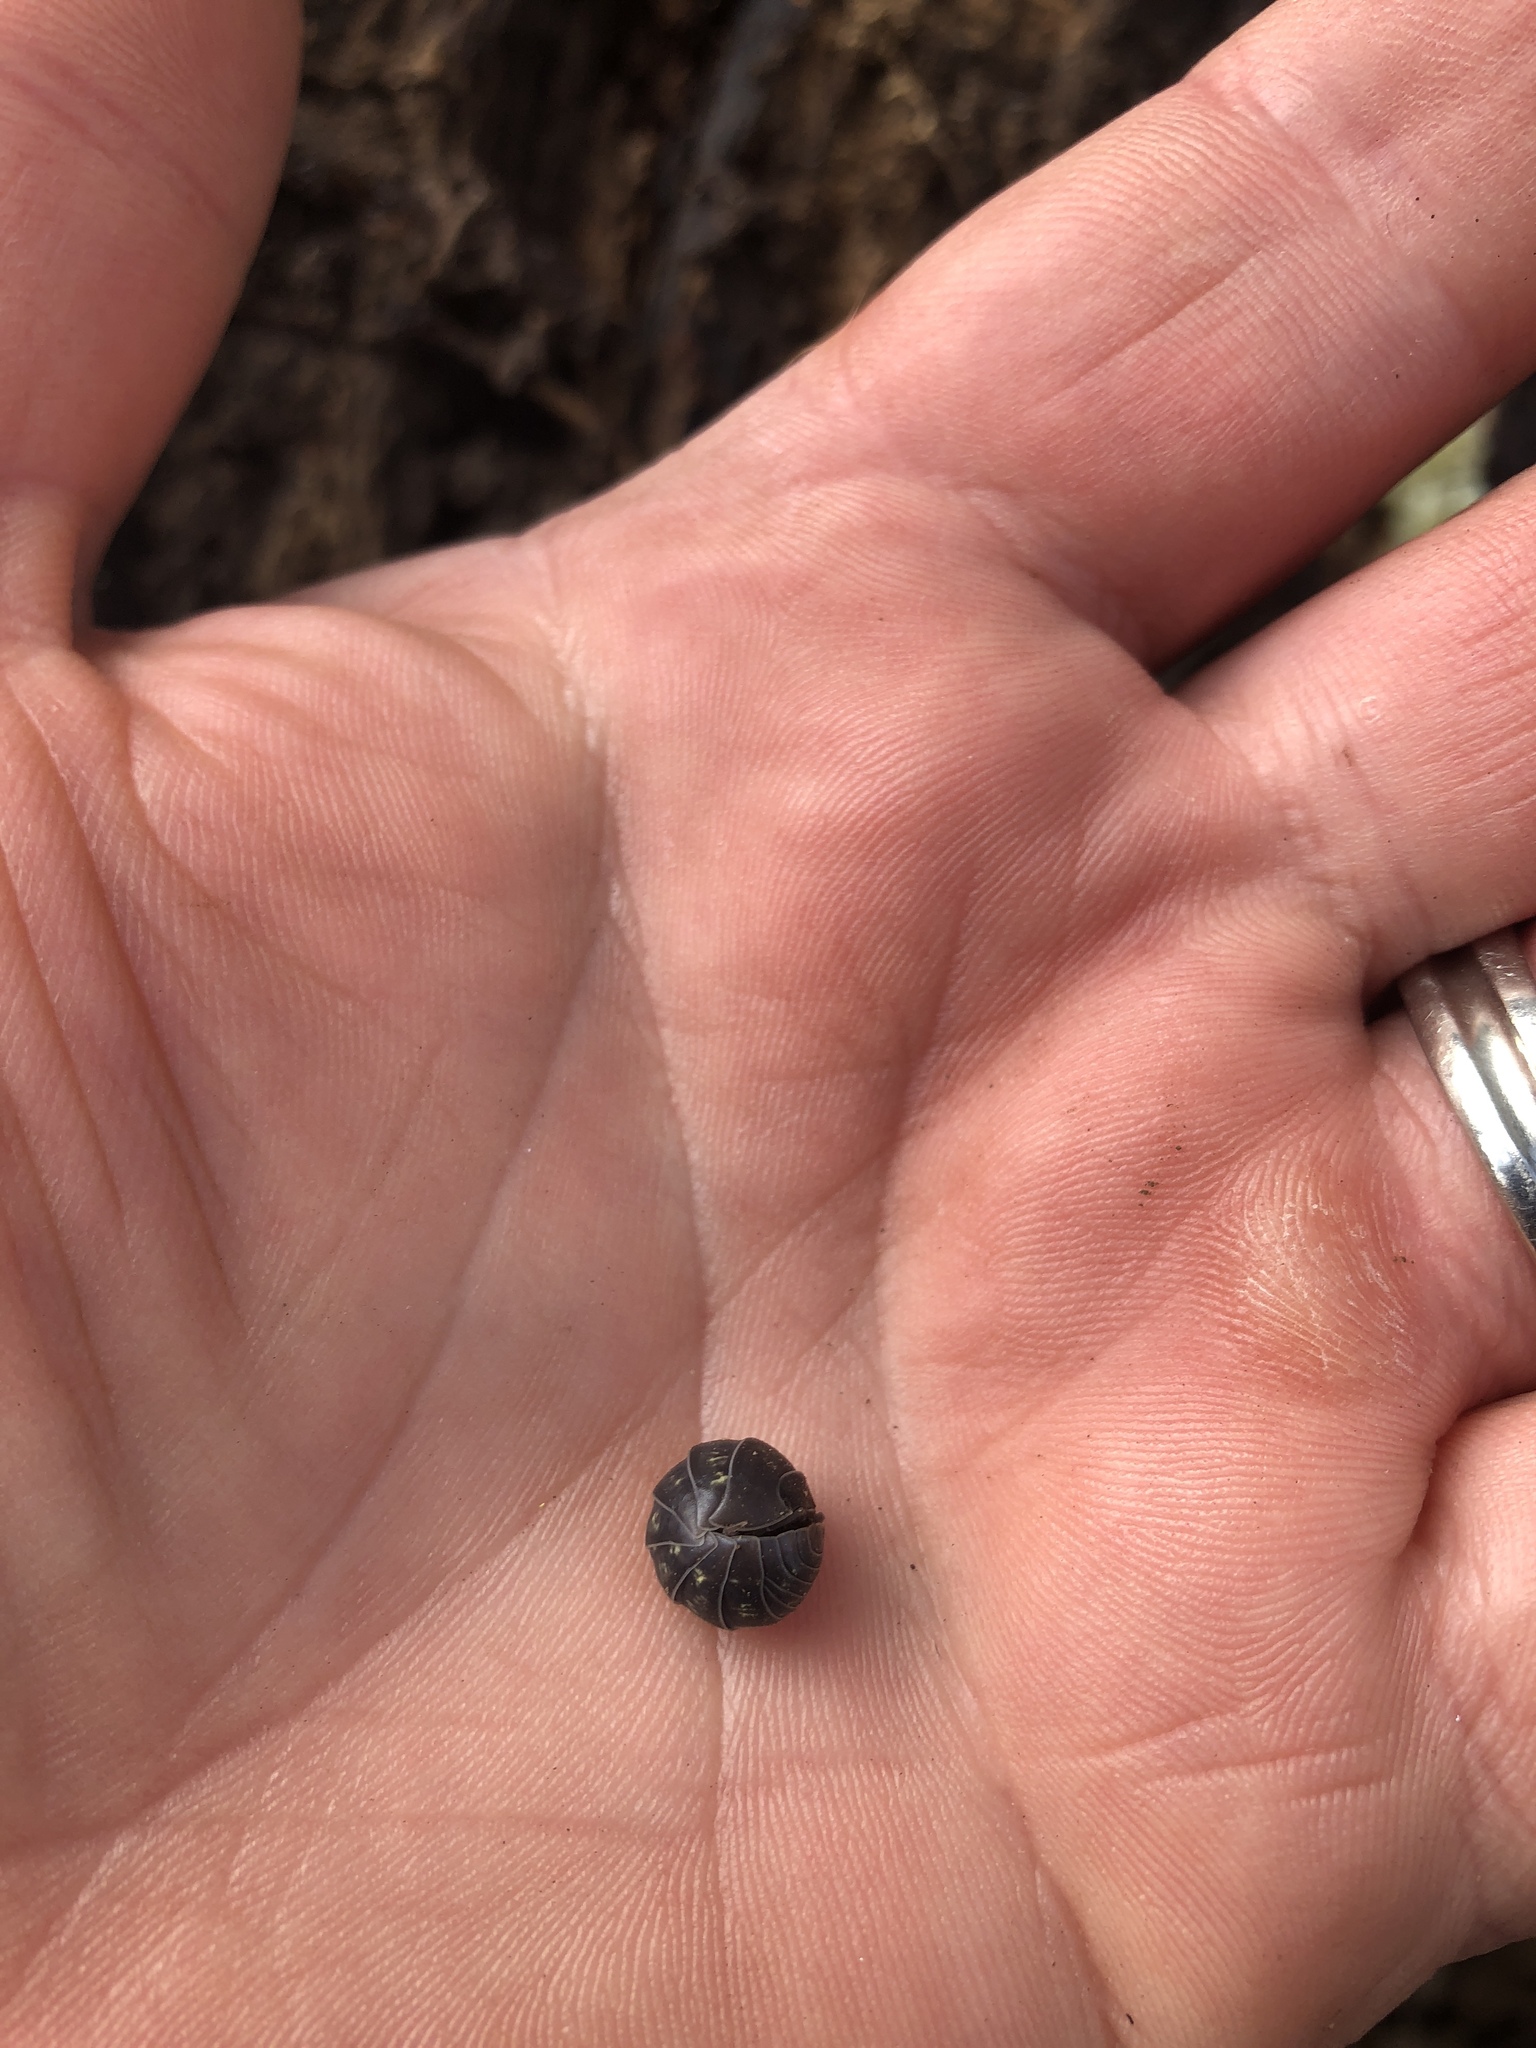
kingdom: Animalia
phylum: Arthropoda
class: Malacostraca
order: Isopoda
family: Armadillidiidae
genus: Armadillidium
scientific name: Armadillidium vulgare
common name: Common pill woodlouse
